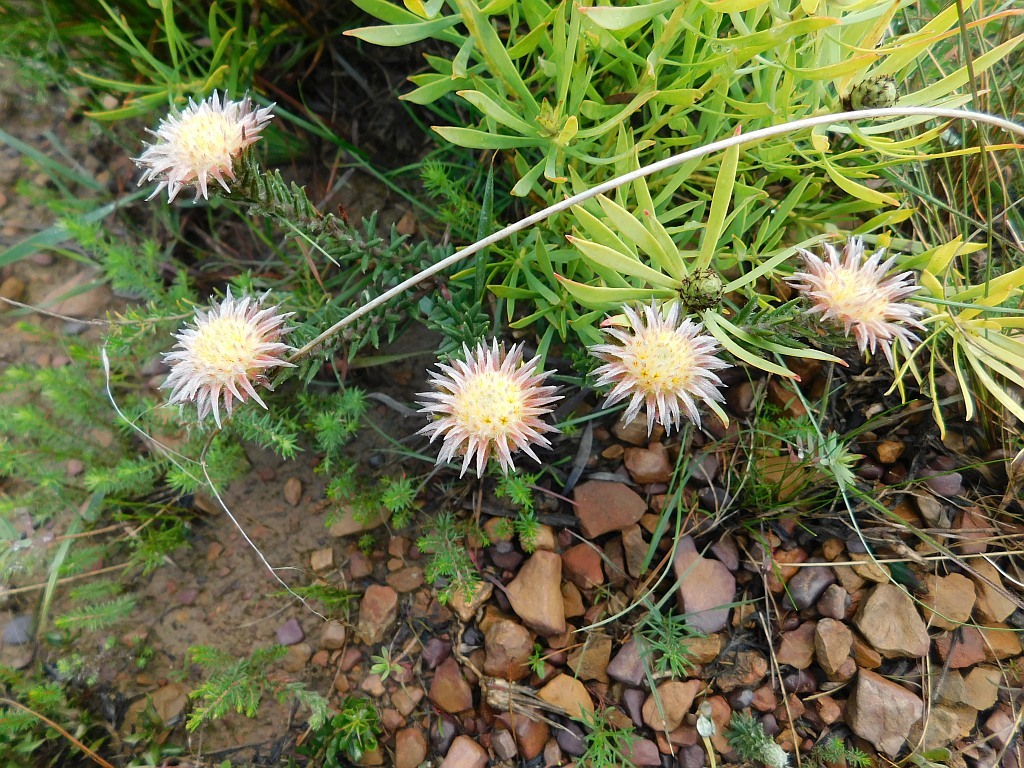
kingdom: Plantae
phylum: Tracheophyta
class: Magnoliopsida
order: Rosales
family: Rhamnaceae
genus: Phylica
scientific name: Phylica calcarata
